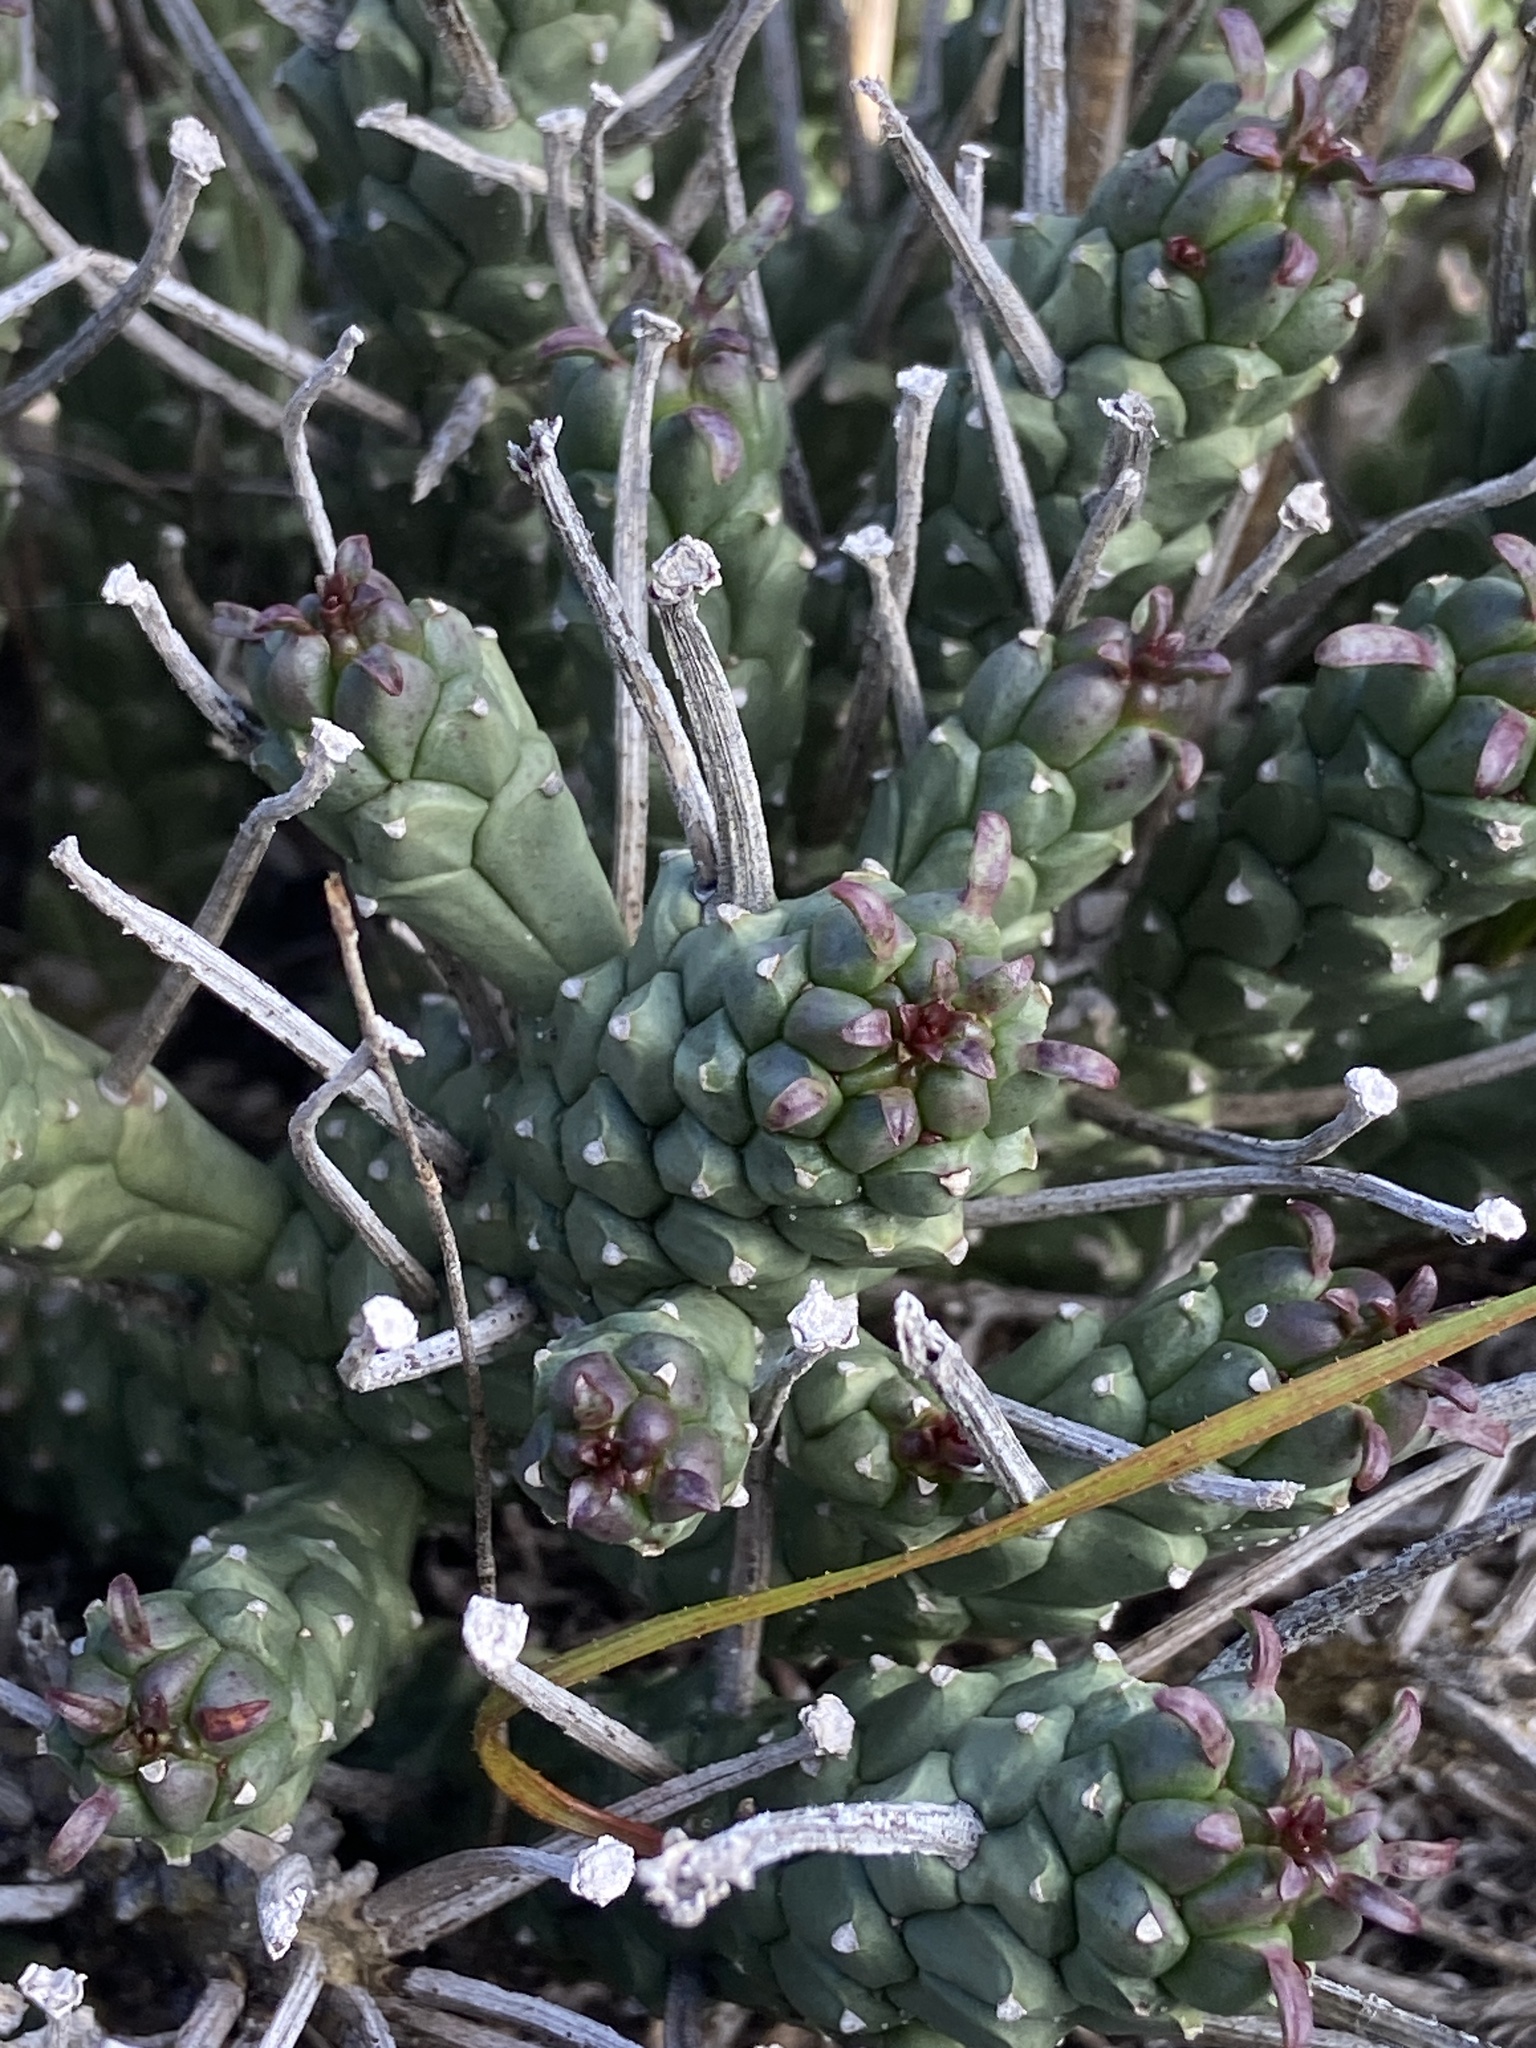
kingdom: Plantae
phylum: Tracheophyta
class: Magnoliopsida
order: Malpighiales
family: Euphorbiaceae
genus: Euphorbia
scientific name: Euphorbia caput-medusae
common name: Medusa's-head
